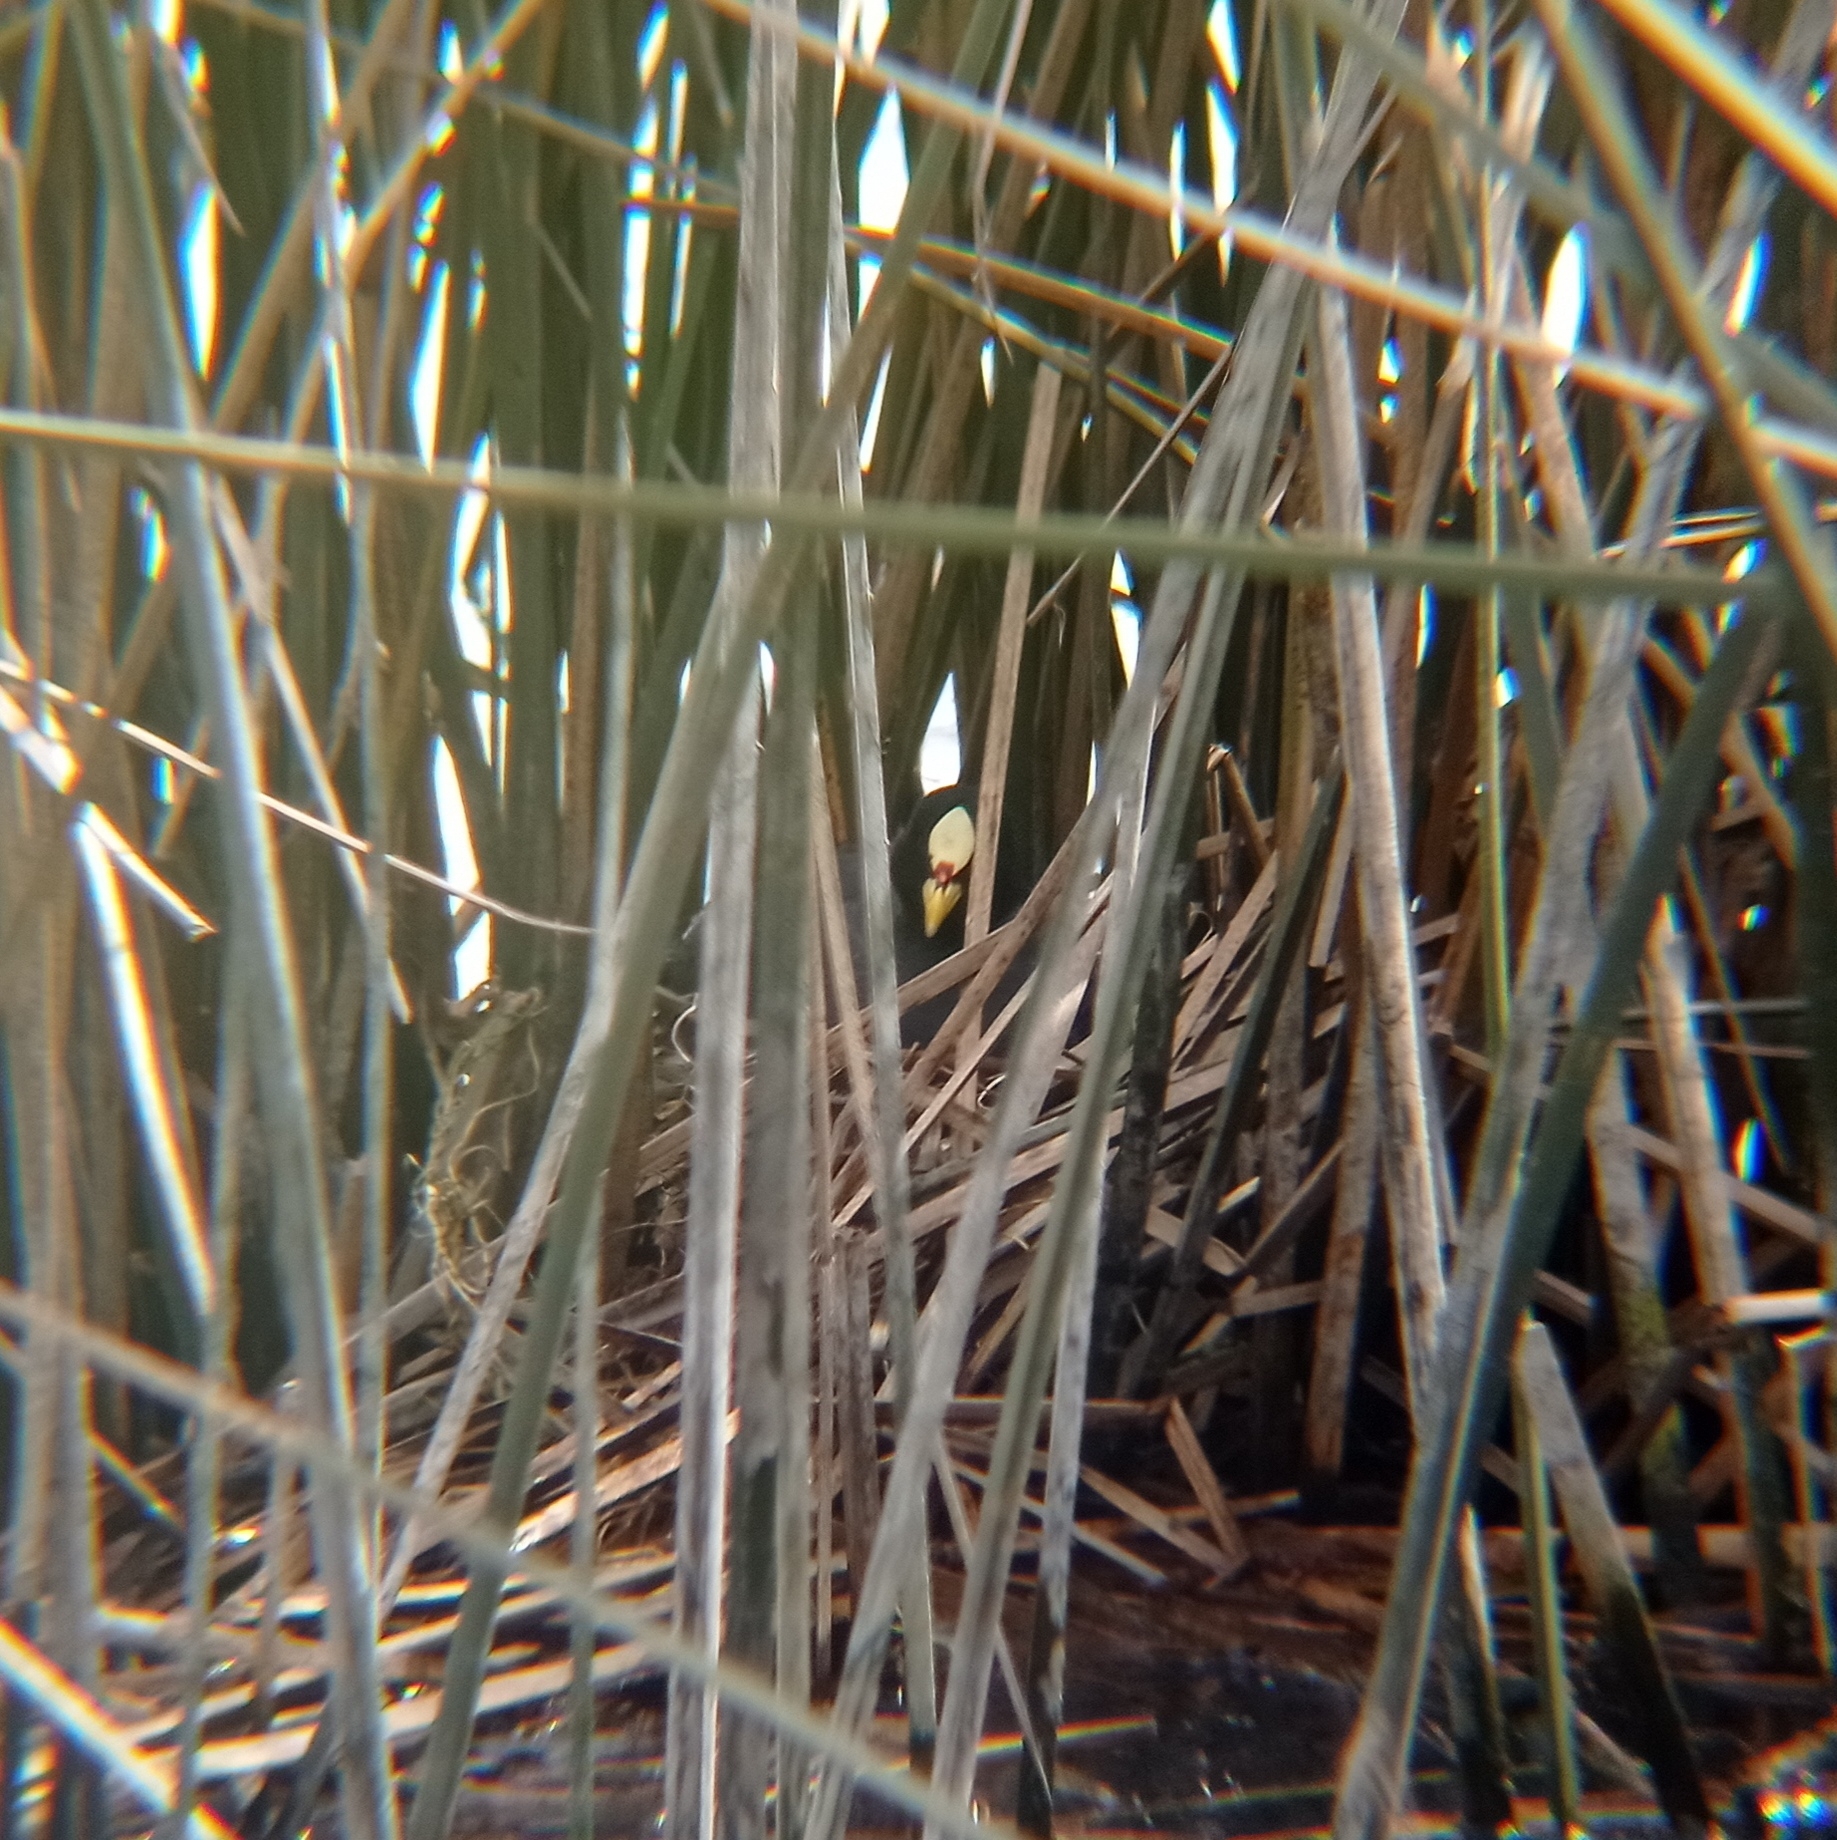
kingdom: Animalia
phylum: Chordata
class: Aves
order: Gruiformes
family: Rallidae
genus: Fulica
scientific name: Fulica armillata
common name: Red-gartered coot
